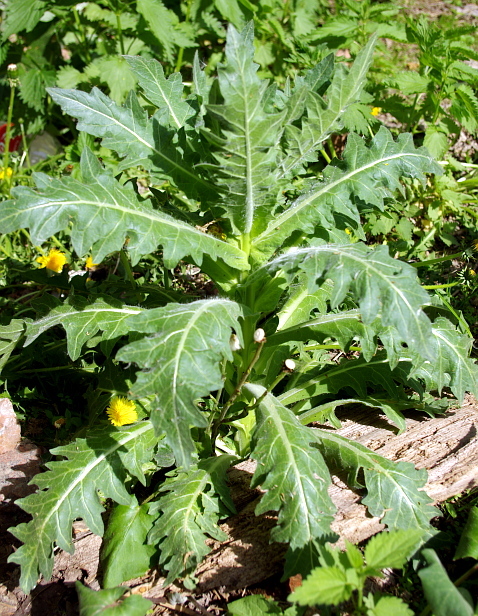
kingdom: Plantae
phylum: Tracheophyta
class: Magnoliopsida
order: Solanales
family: Solanaceae
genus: Hyoscyamus
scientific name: Hyoscyamus niger
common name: Henbane
